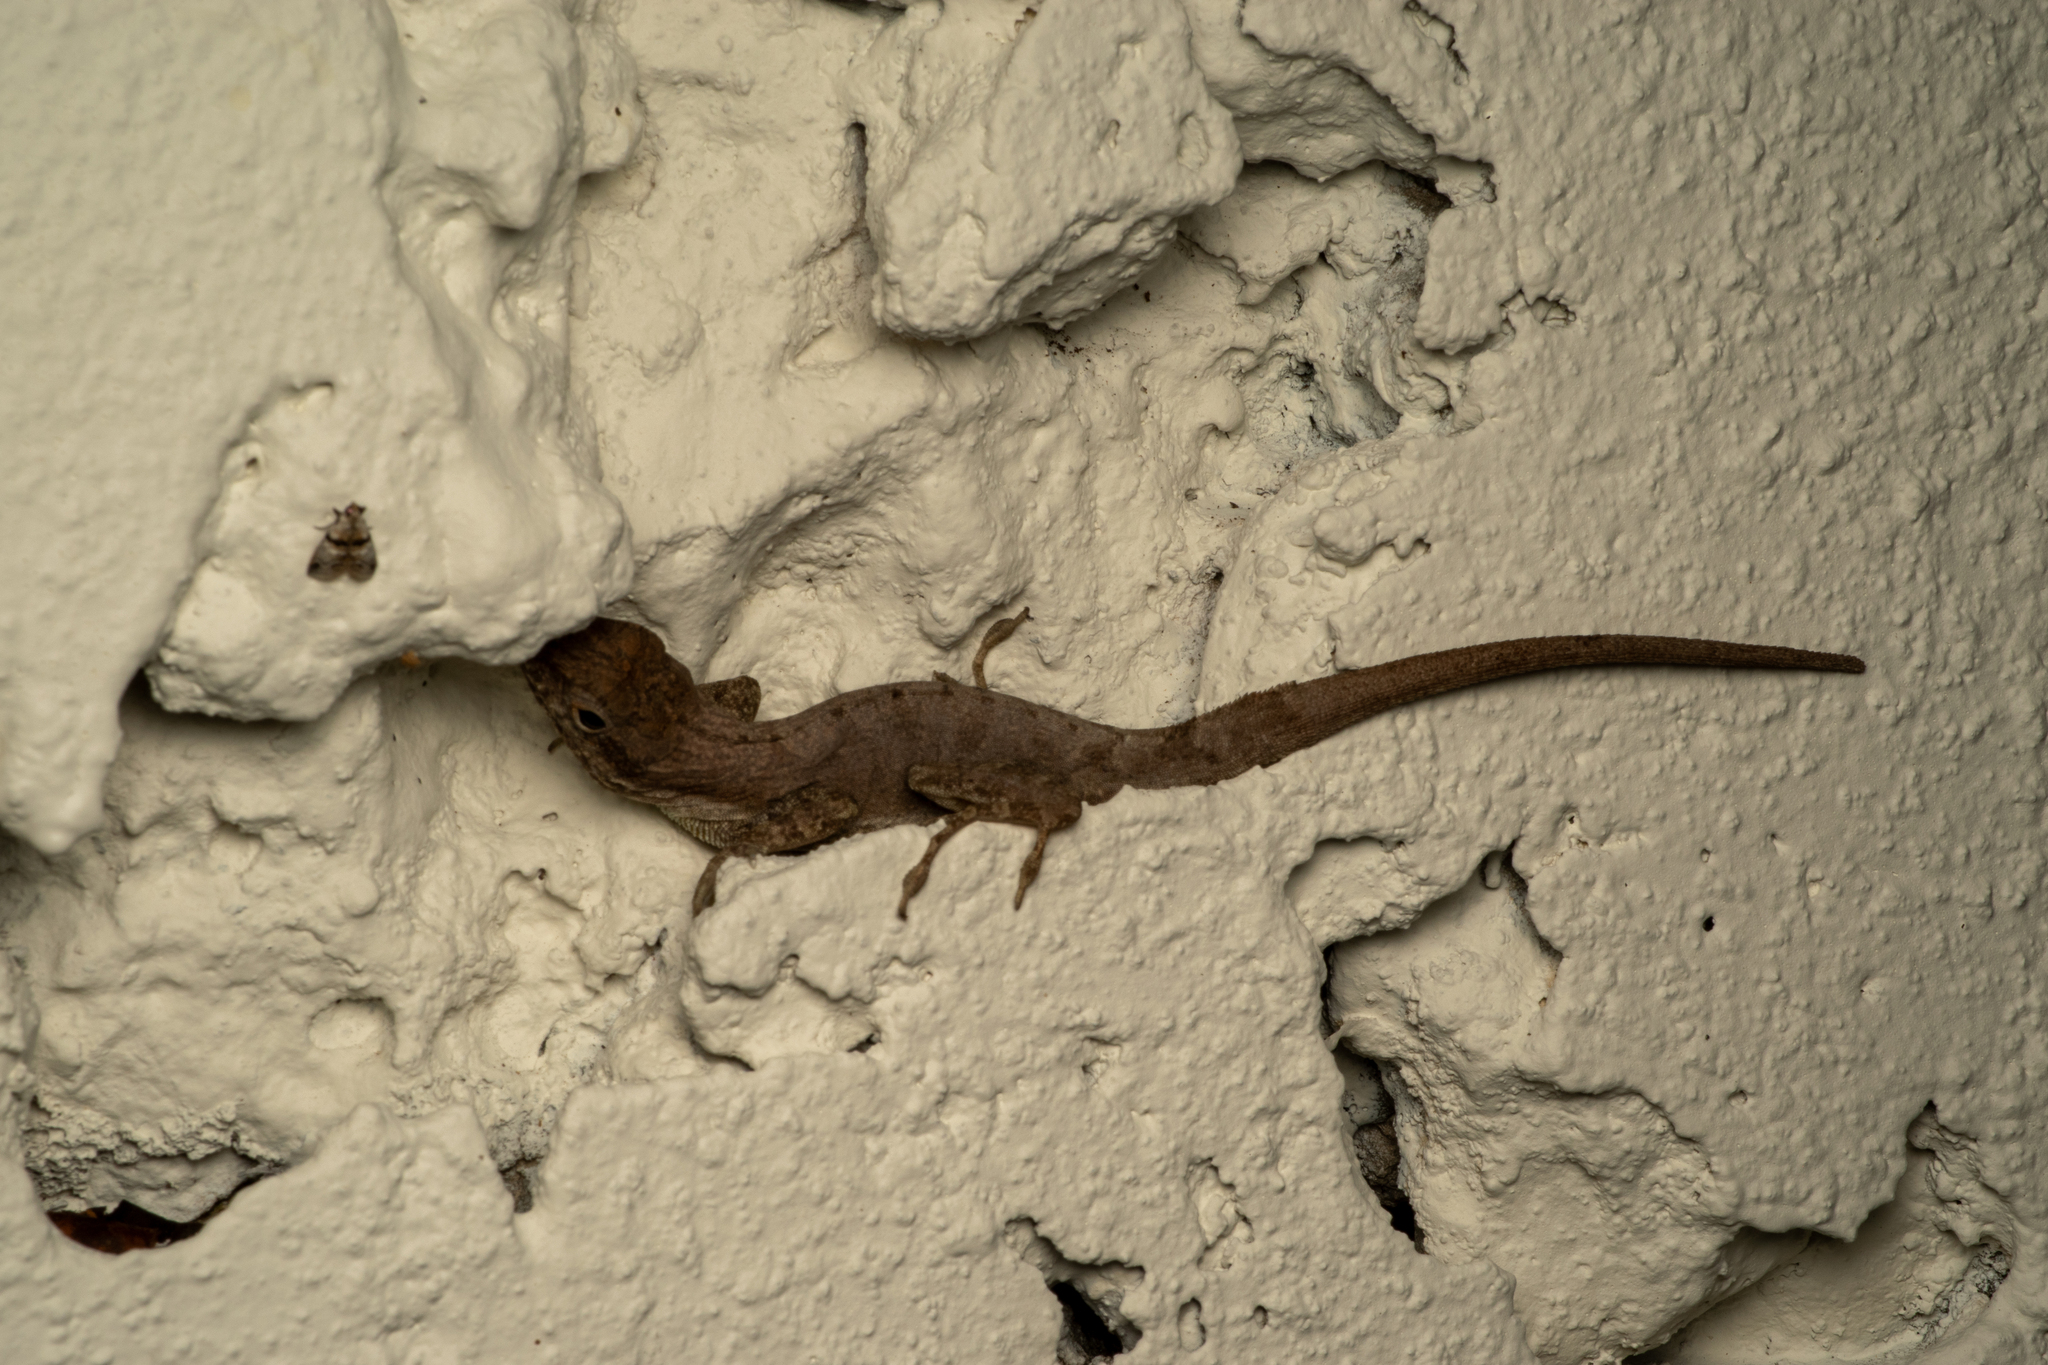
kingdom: Animalia
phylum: Chordata
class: Squamata
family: Dactyloidae
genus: Anolis
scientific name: Anolis scriptus
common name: Silver key anole
